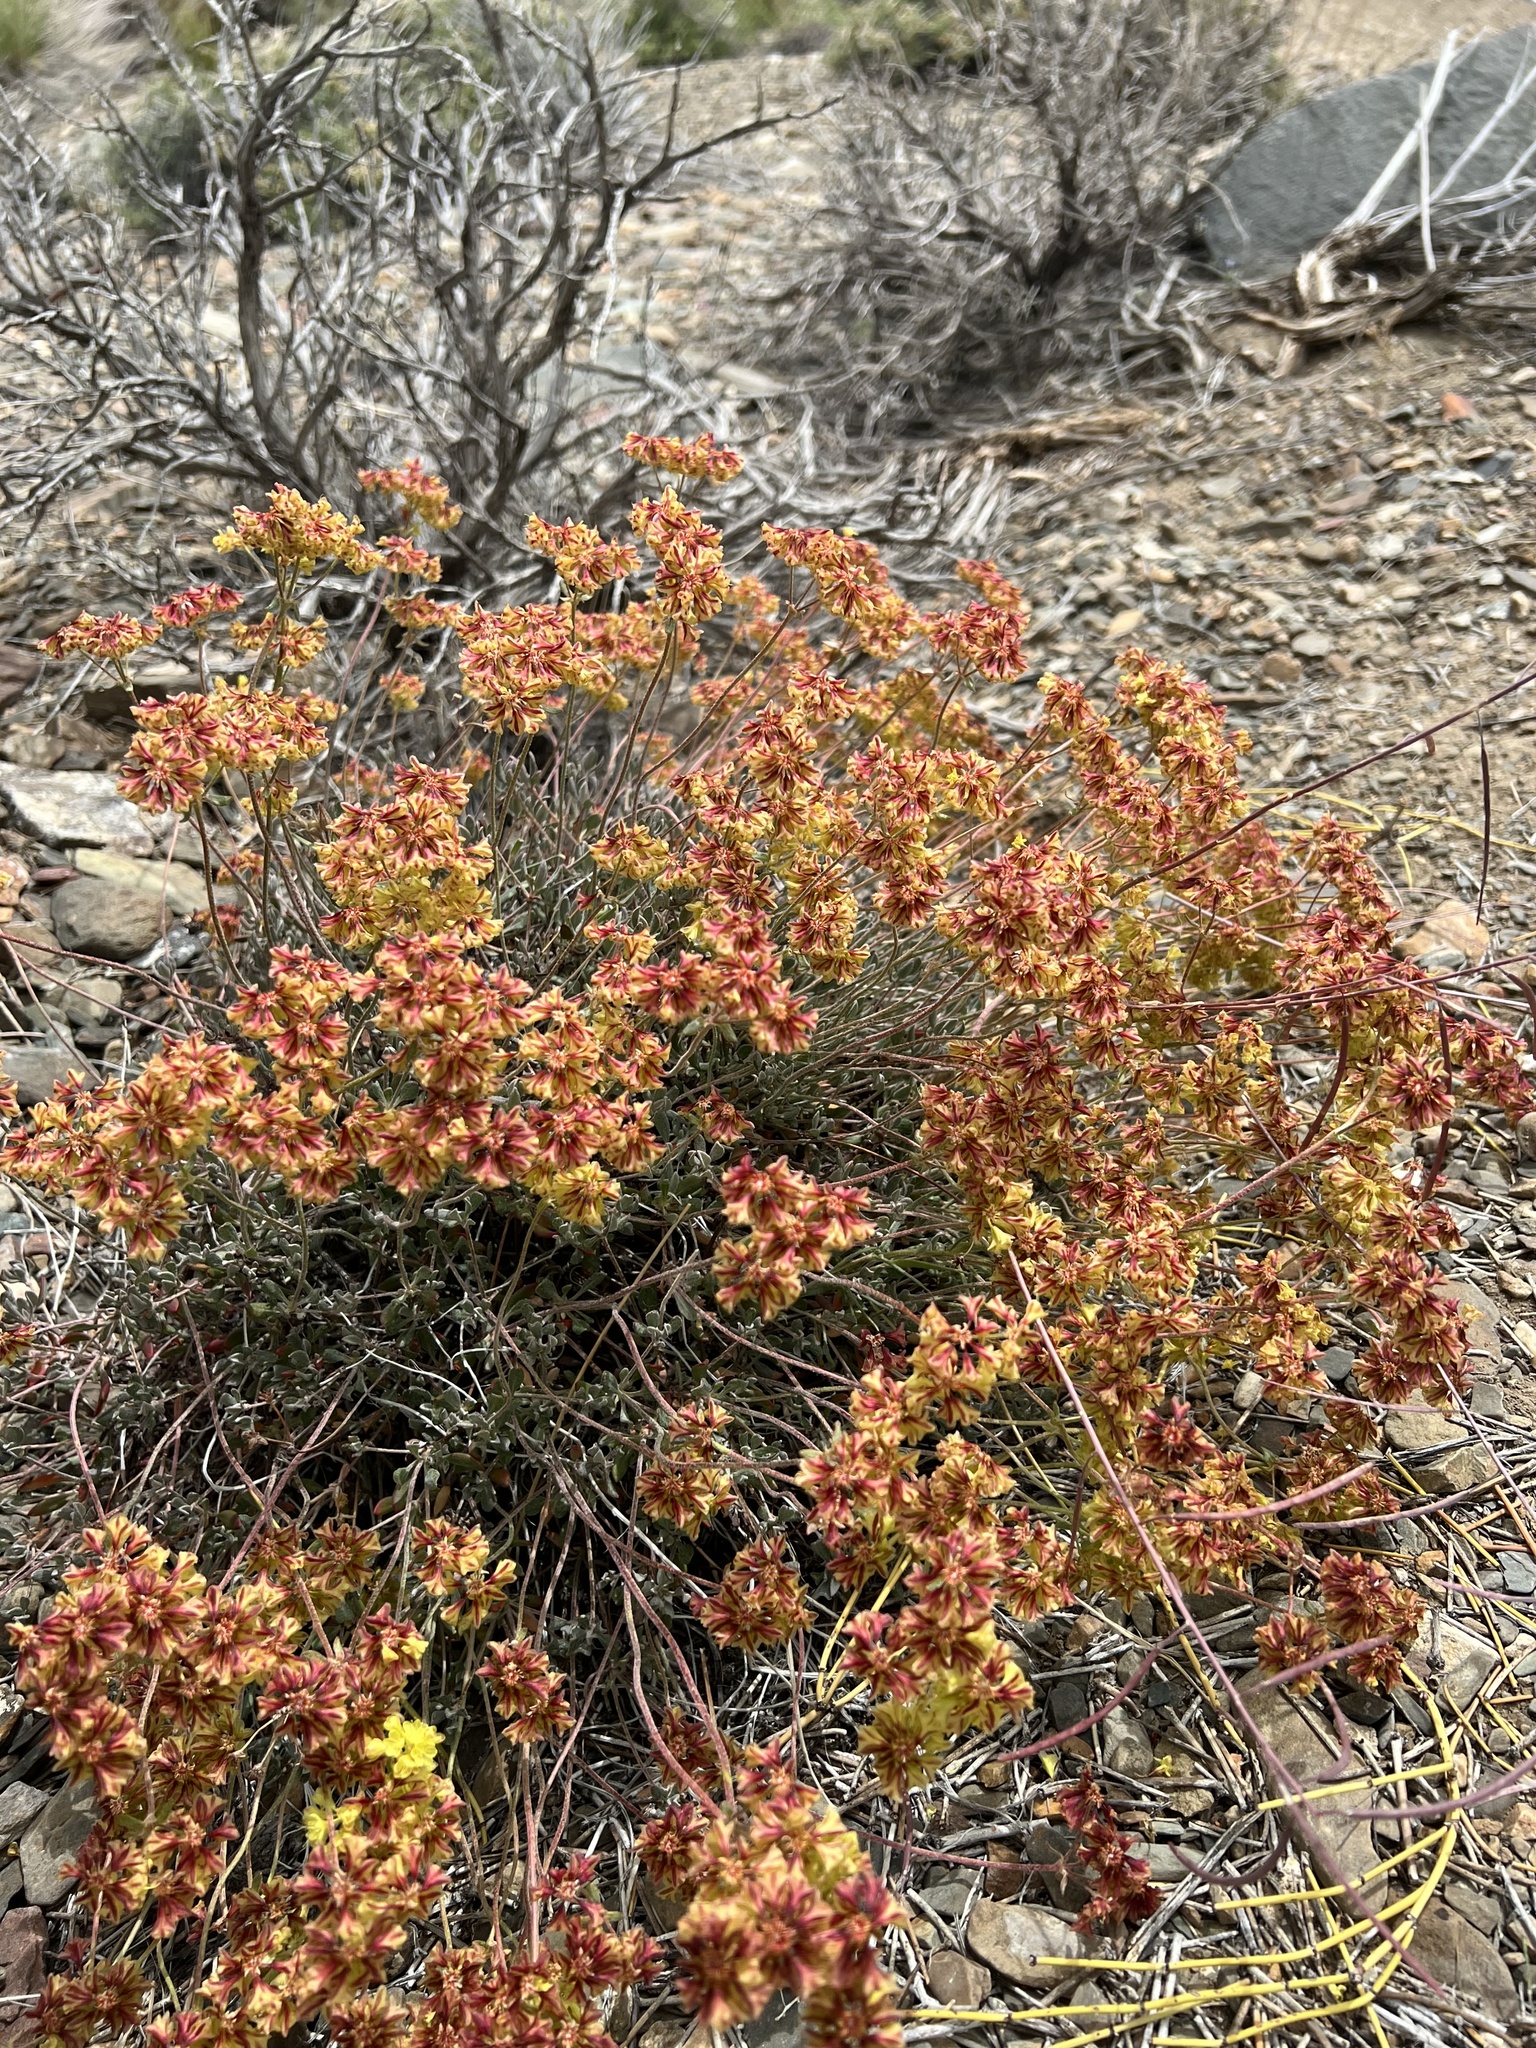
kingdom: Plantae
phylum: Tracheophyta
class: Magnoliopsida
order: Caryophyllales
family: Polygonaceae
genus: Eriogonum
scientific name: Eriogonum umbellatum
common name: Sulfur-buckwheat
